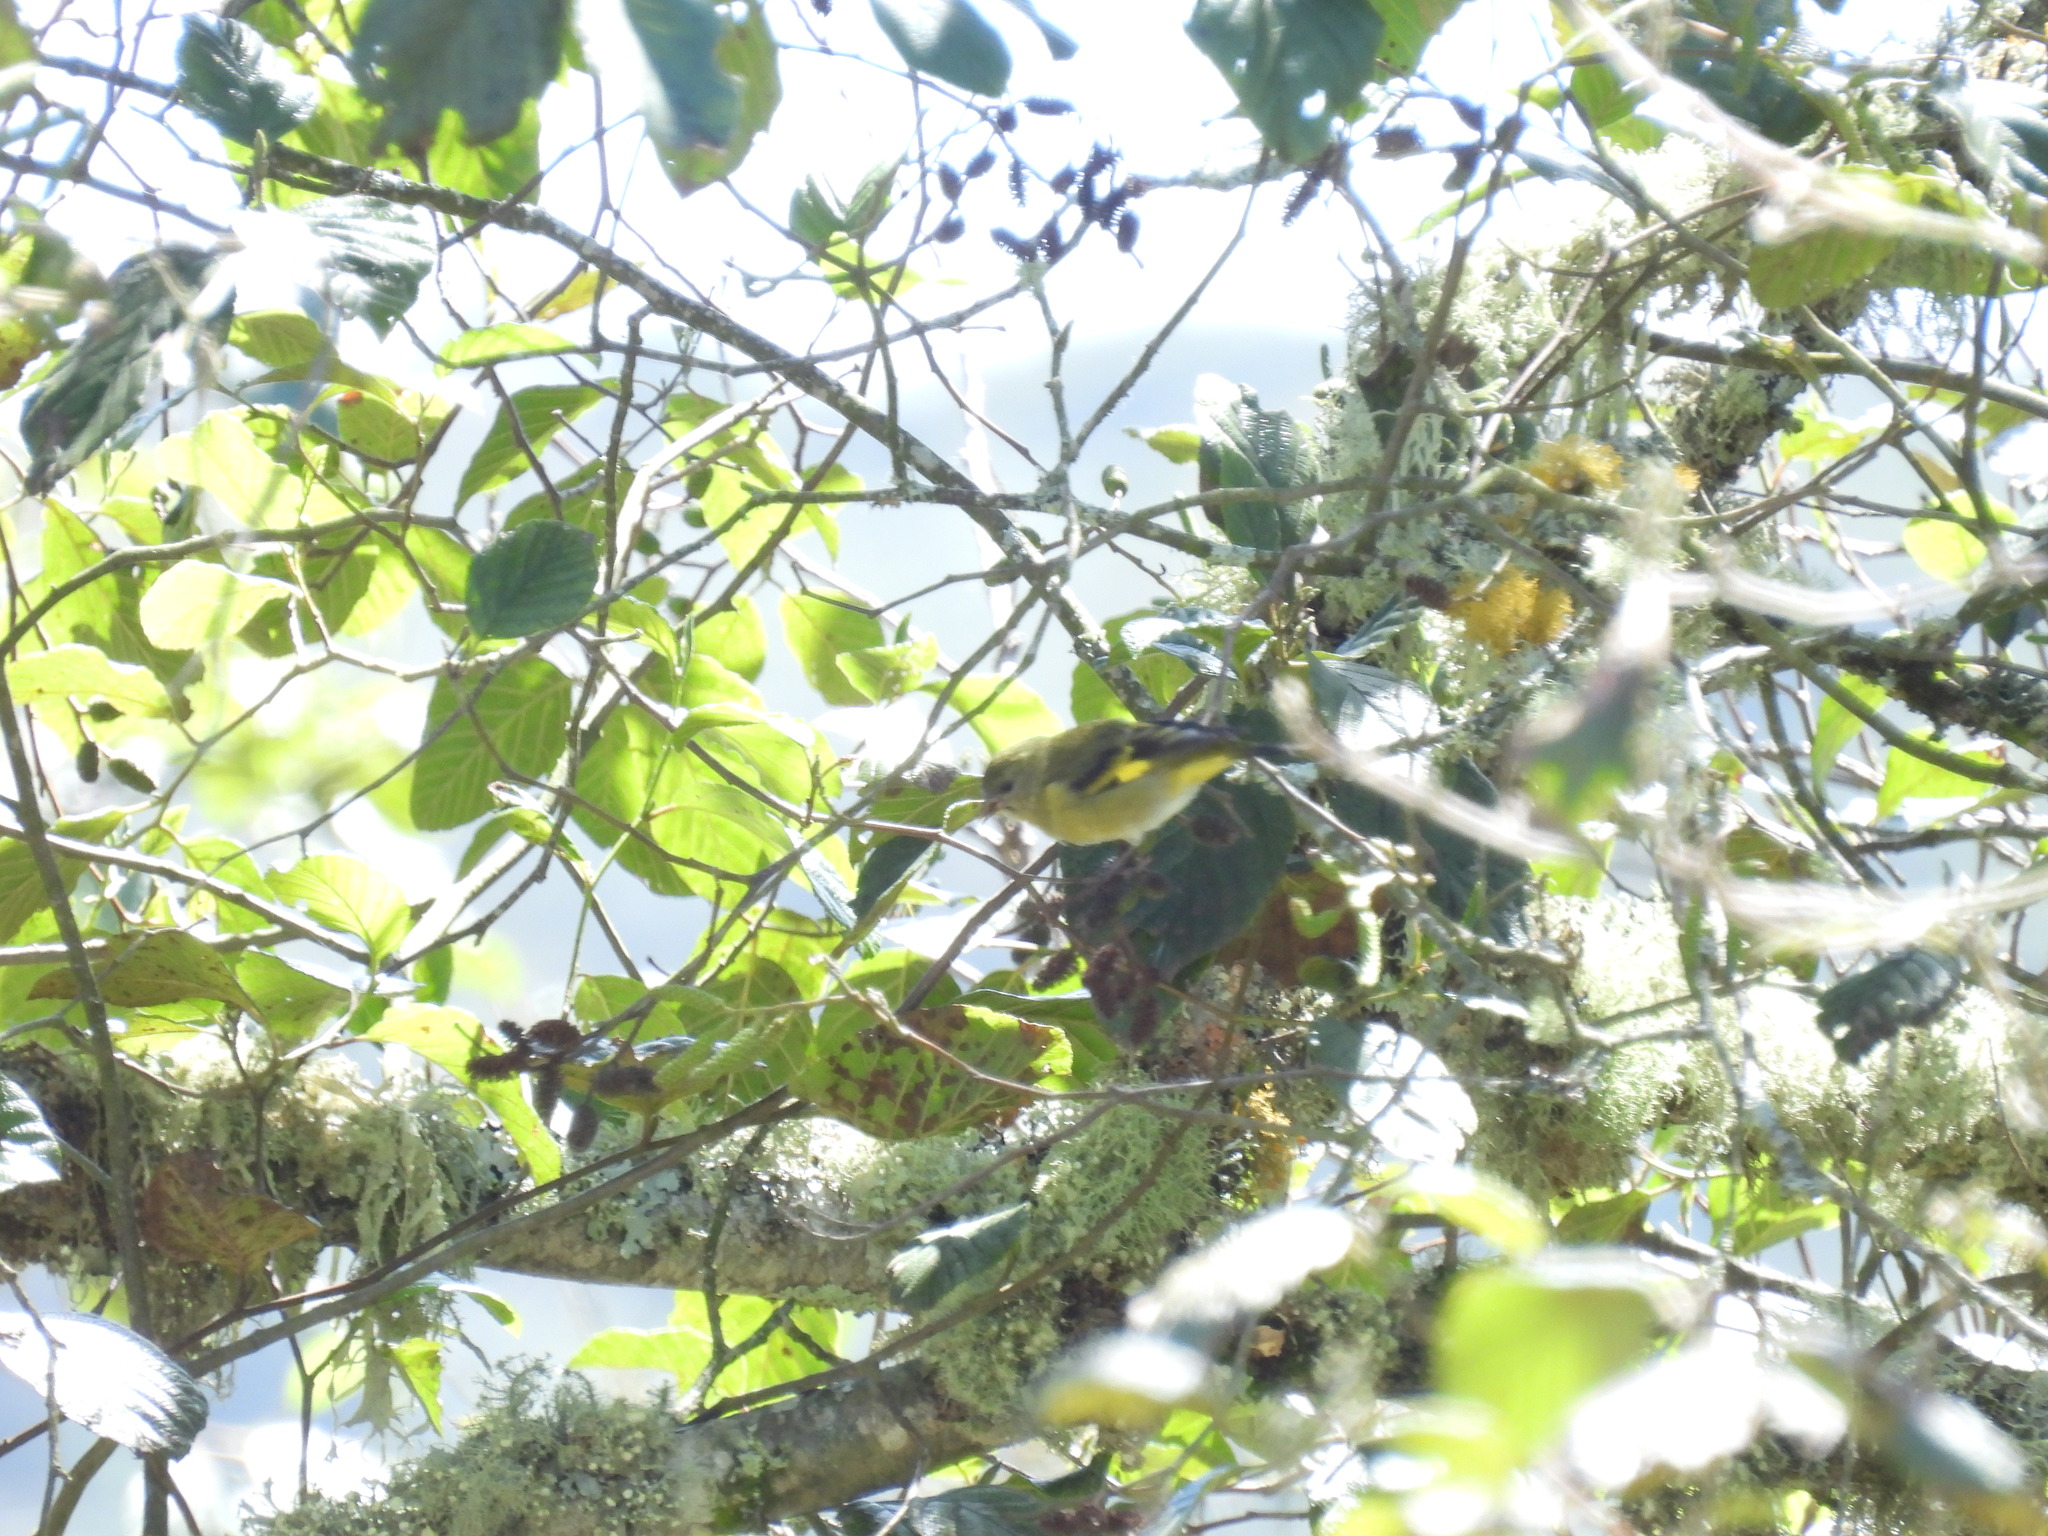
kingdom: Animalia
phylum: Chordata
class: Aves
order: Passeriformes
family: Fringillidae
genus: Spinus
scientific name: Spinus spinescens
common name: Andean siskin
